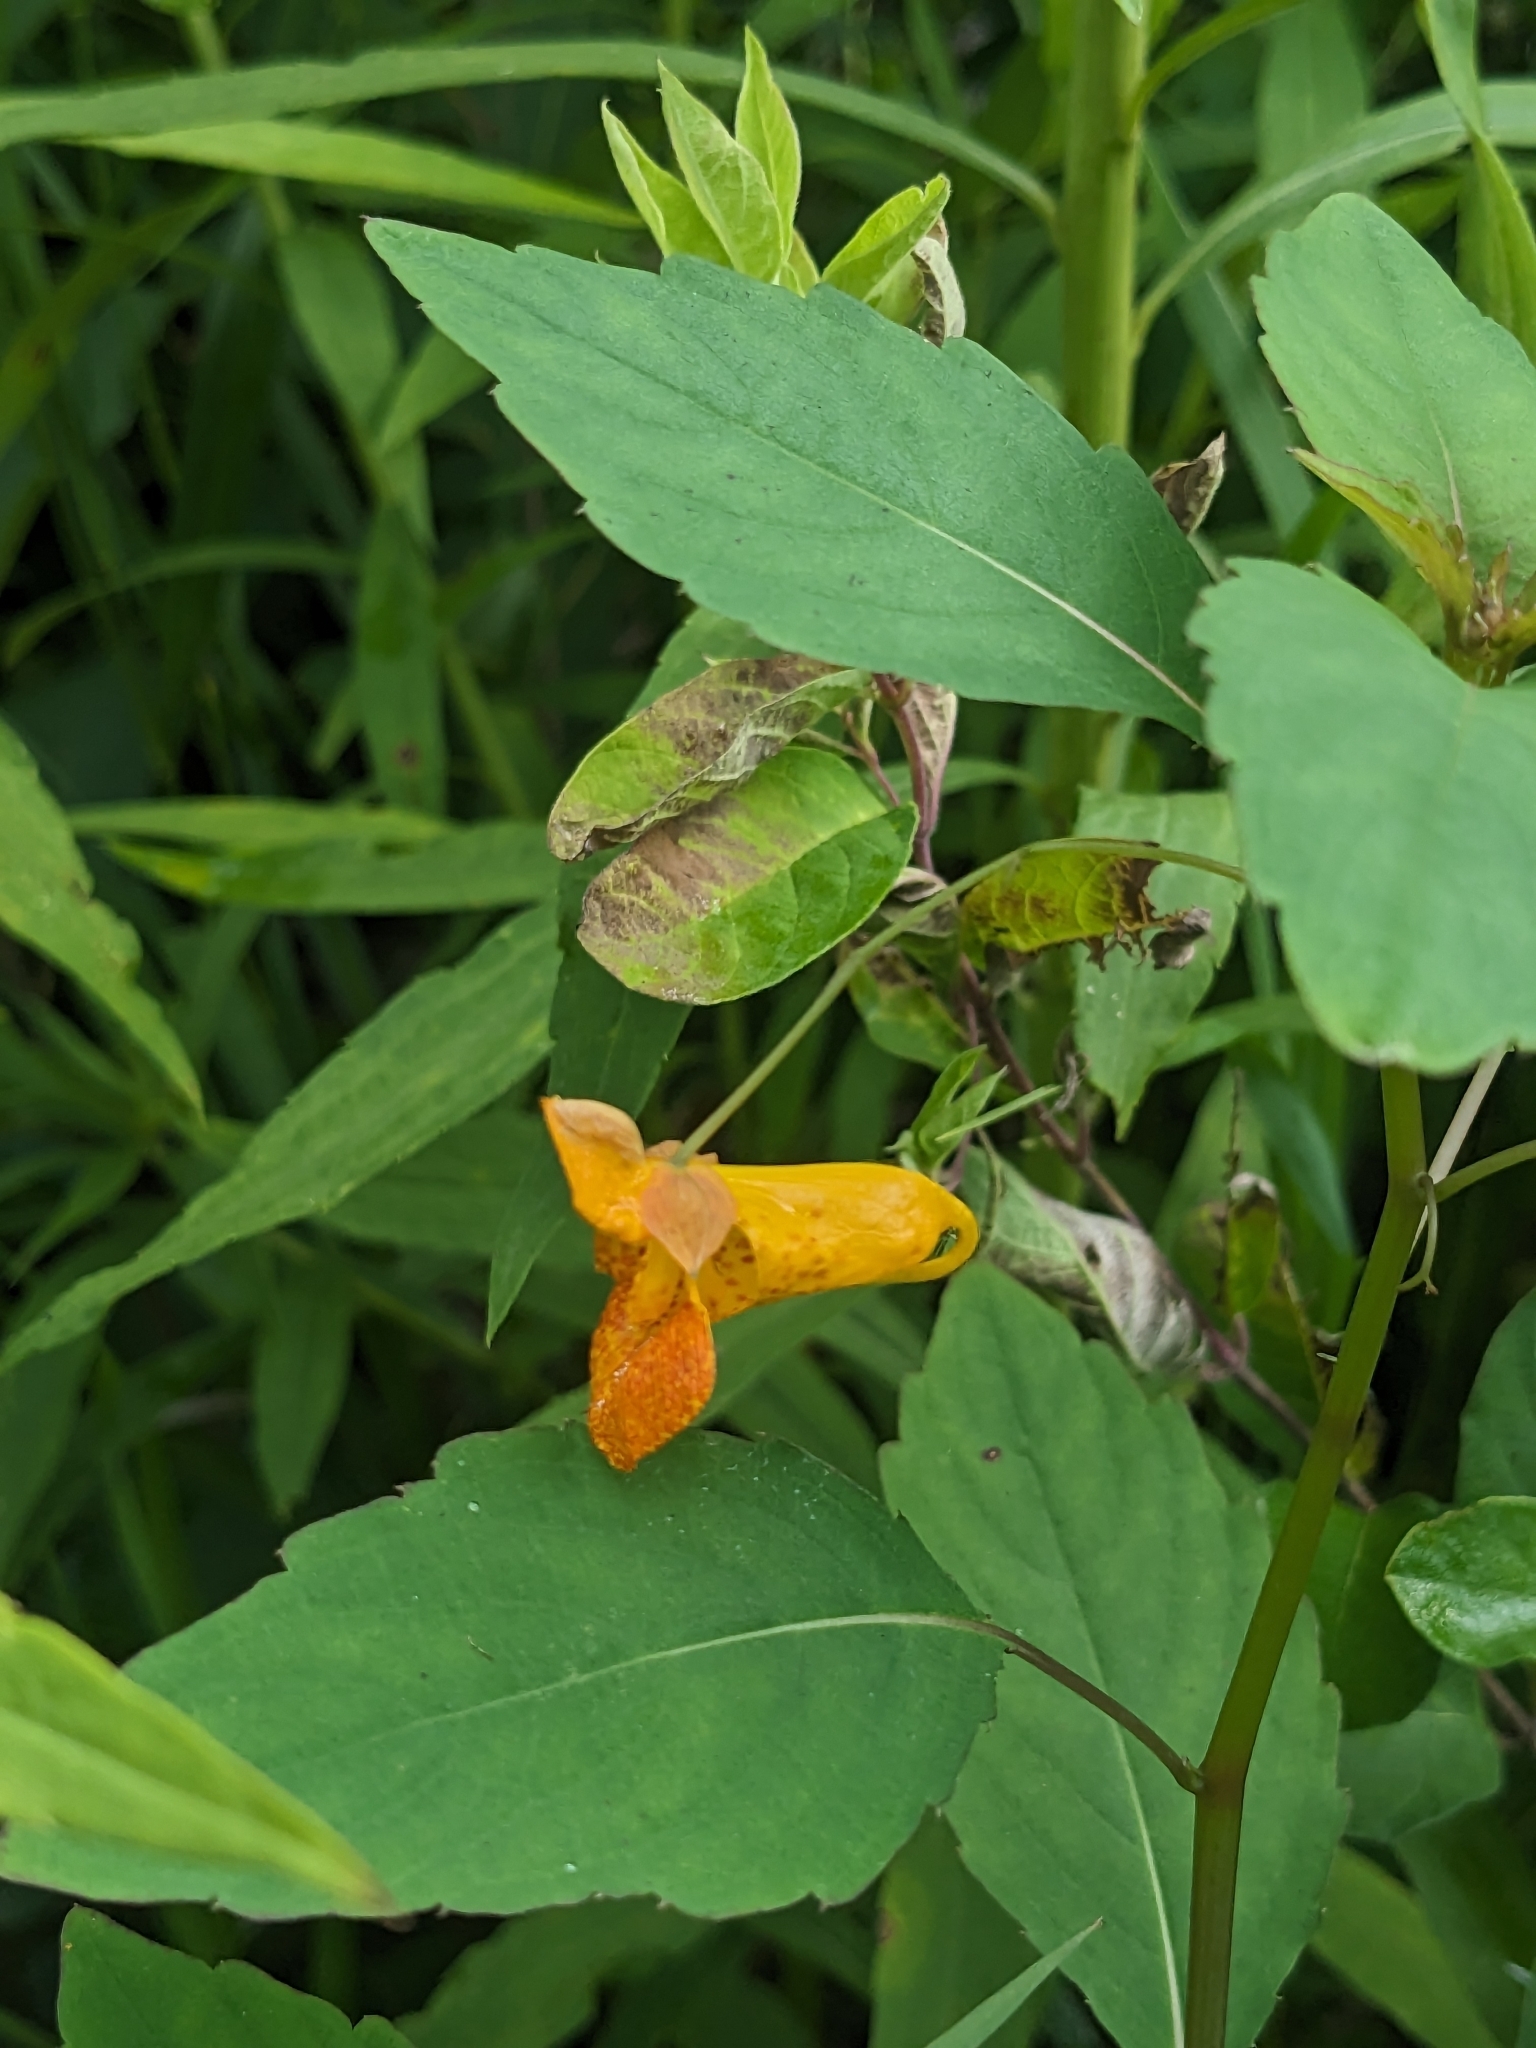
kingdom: Plantae
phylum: Tracheophyta
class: Magnoliopsida
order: Ericales
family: Balsaminaceae
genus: Impatiens
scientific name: Impatiens capensis
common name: Orange balsam
